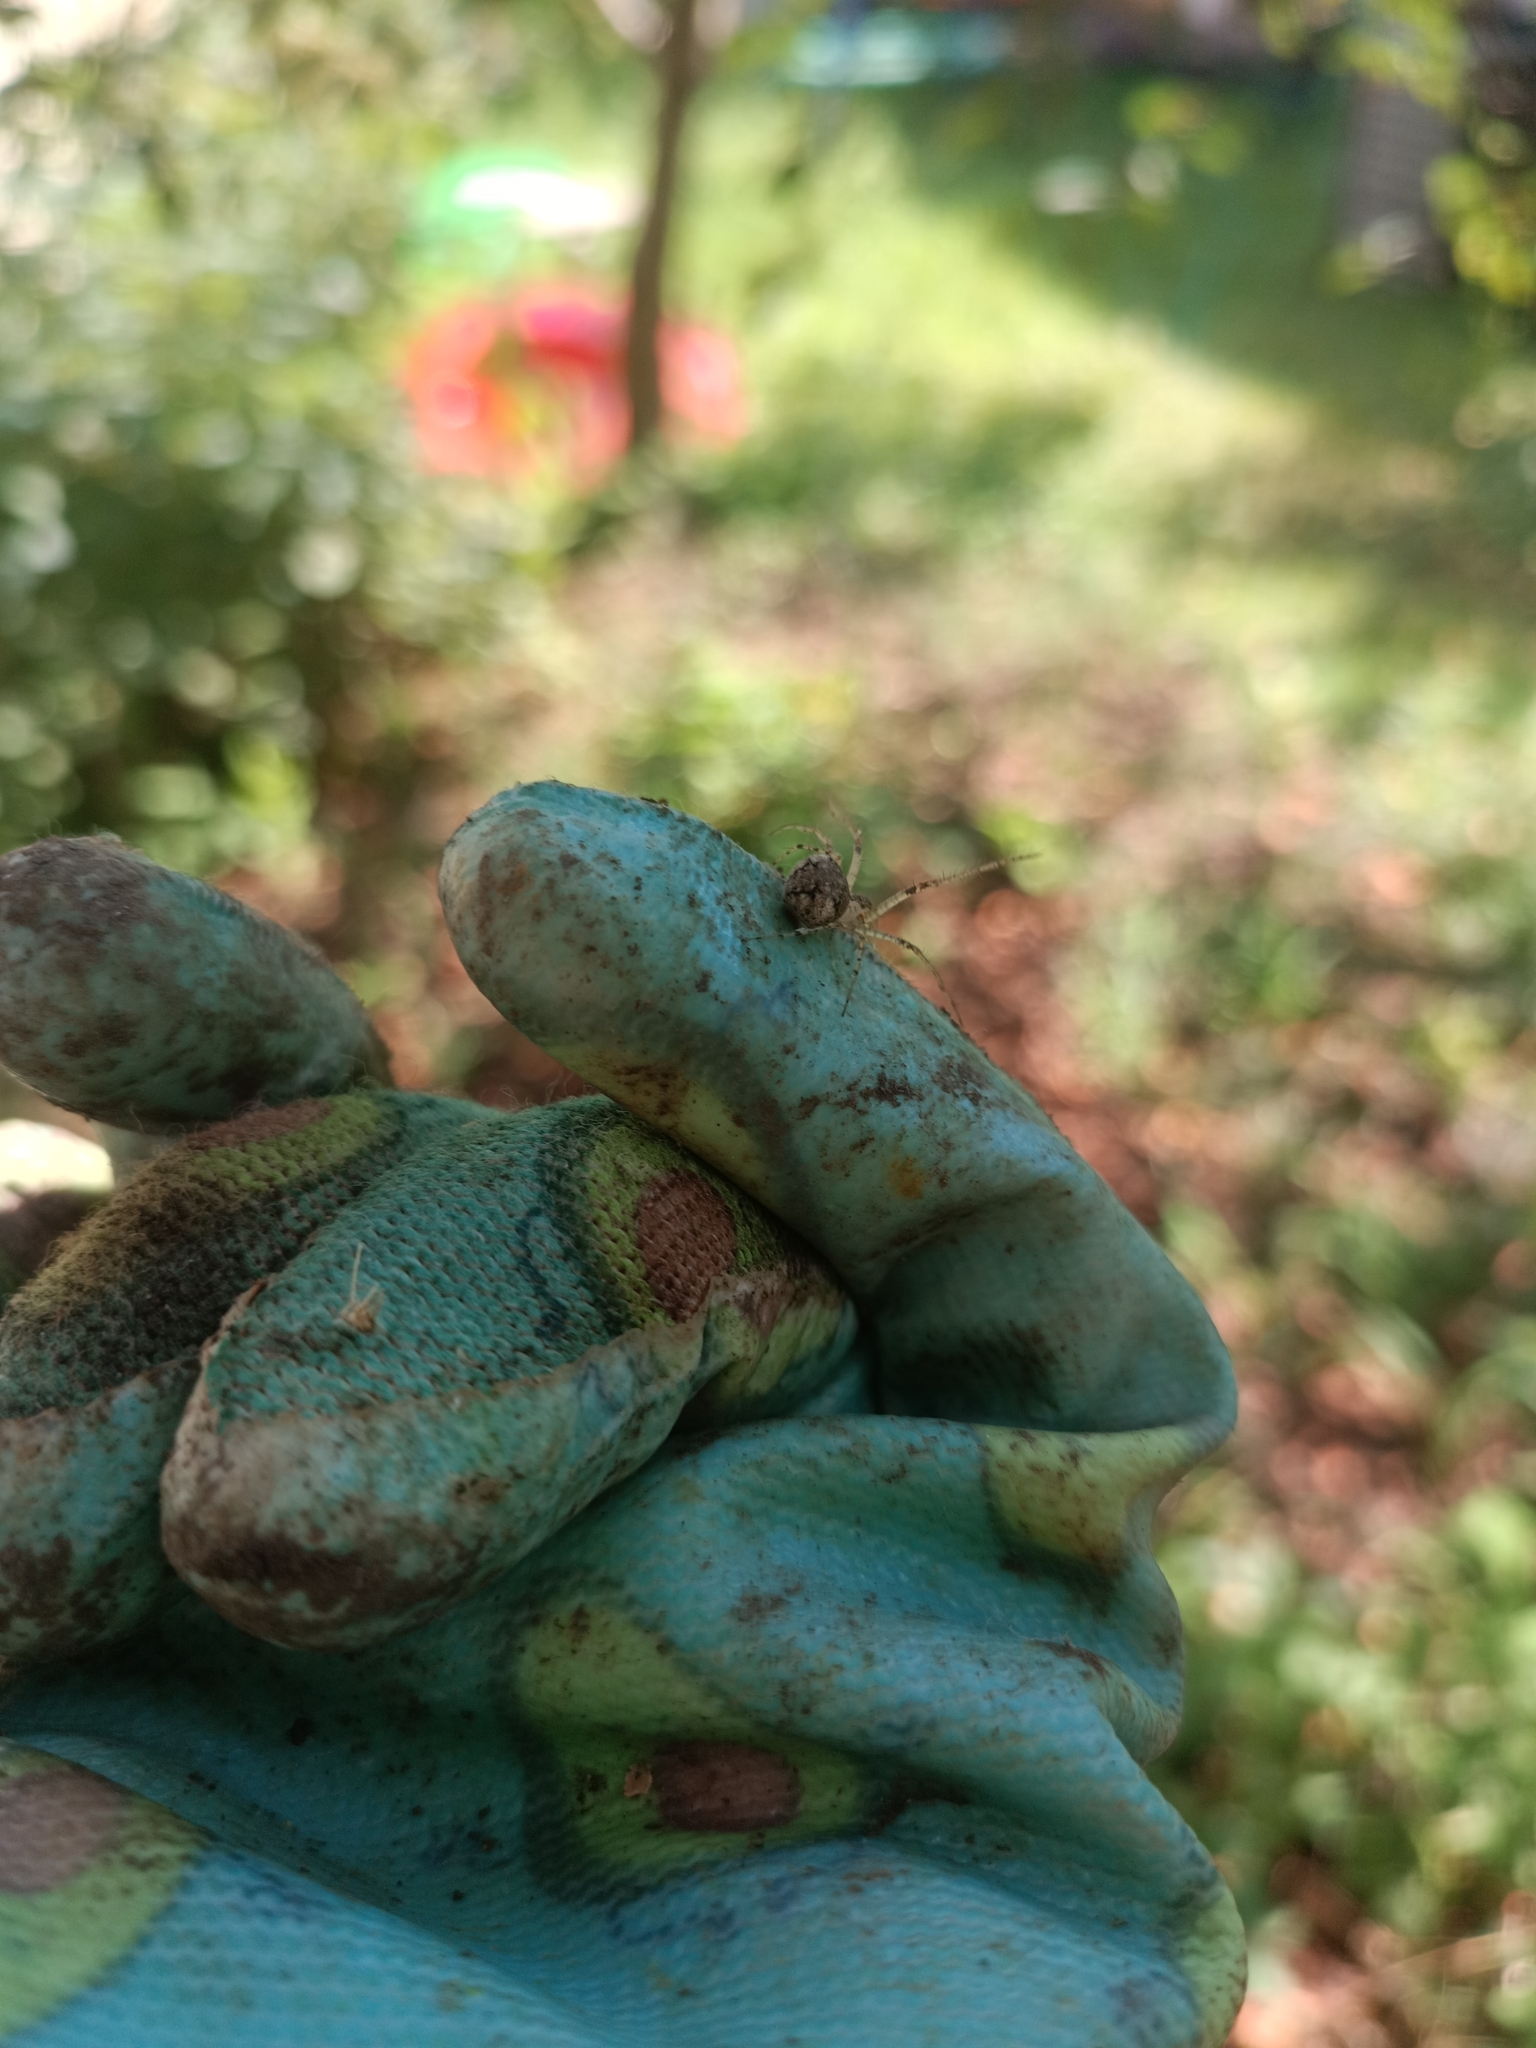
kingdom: Animalia
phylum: Arthropoda
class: Arachnida
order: Araneae
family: Mimetidae
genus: Mimetus
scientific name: Mimetus laevigatus
